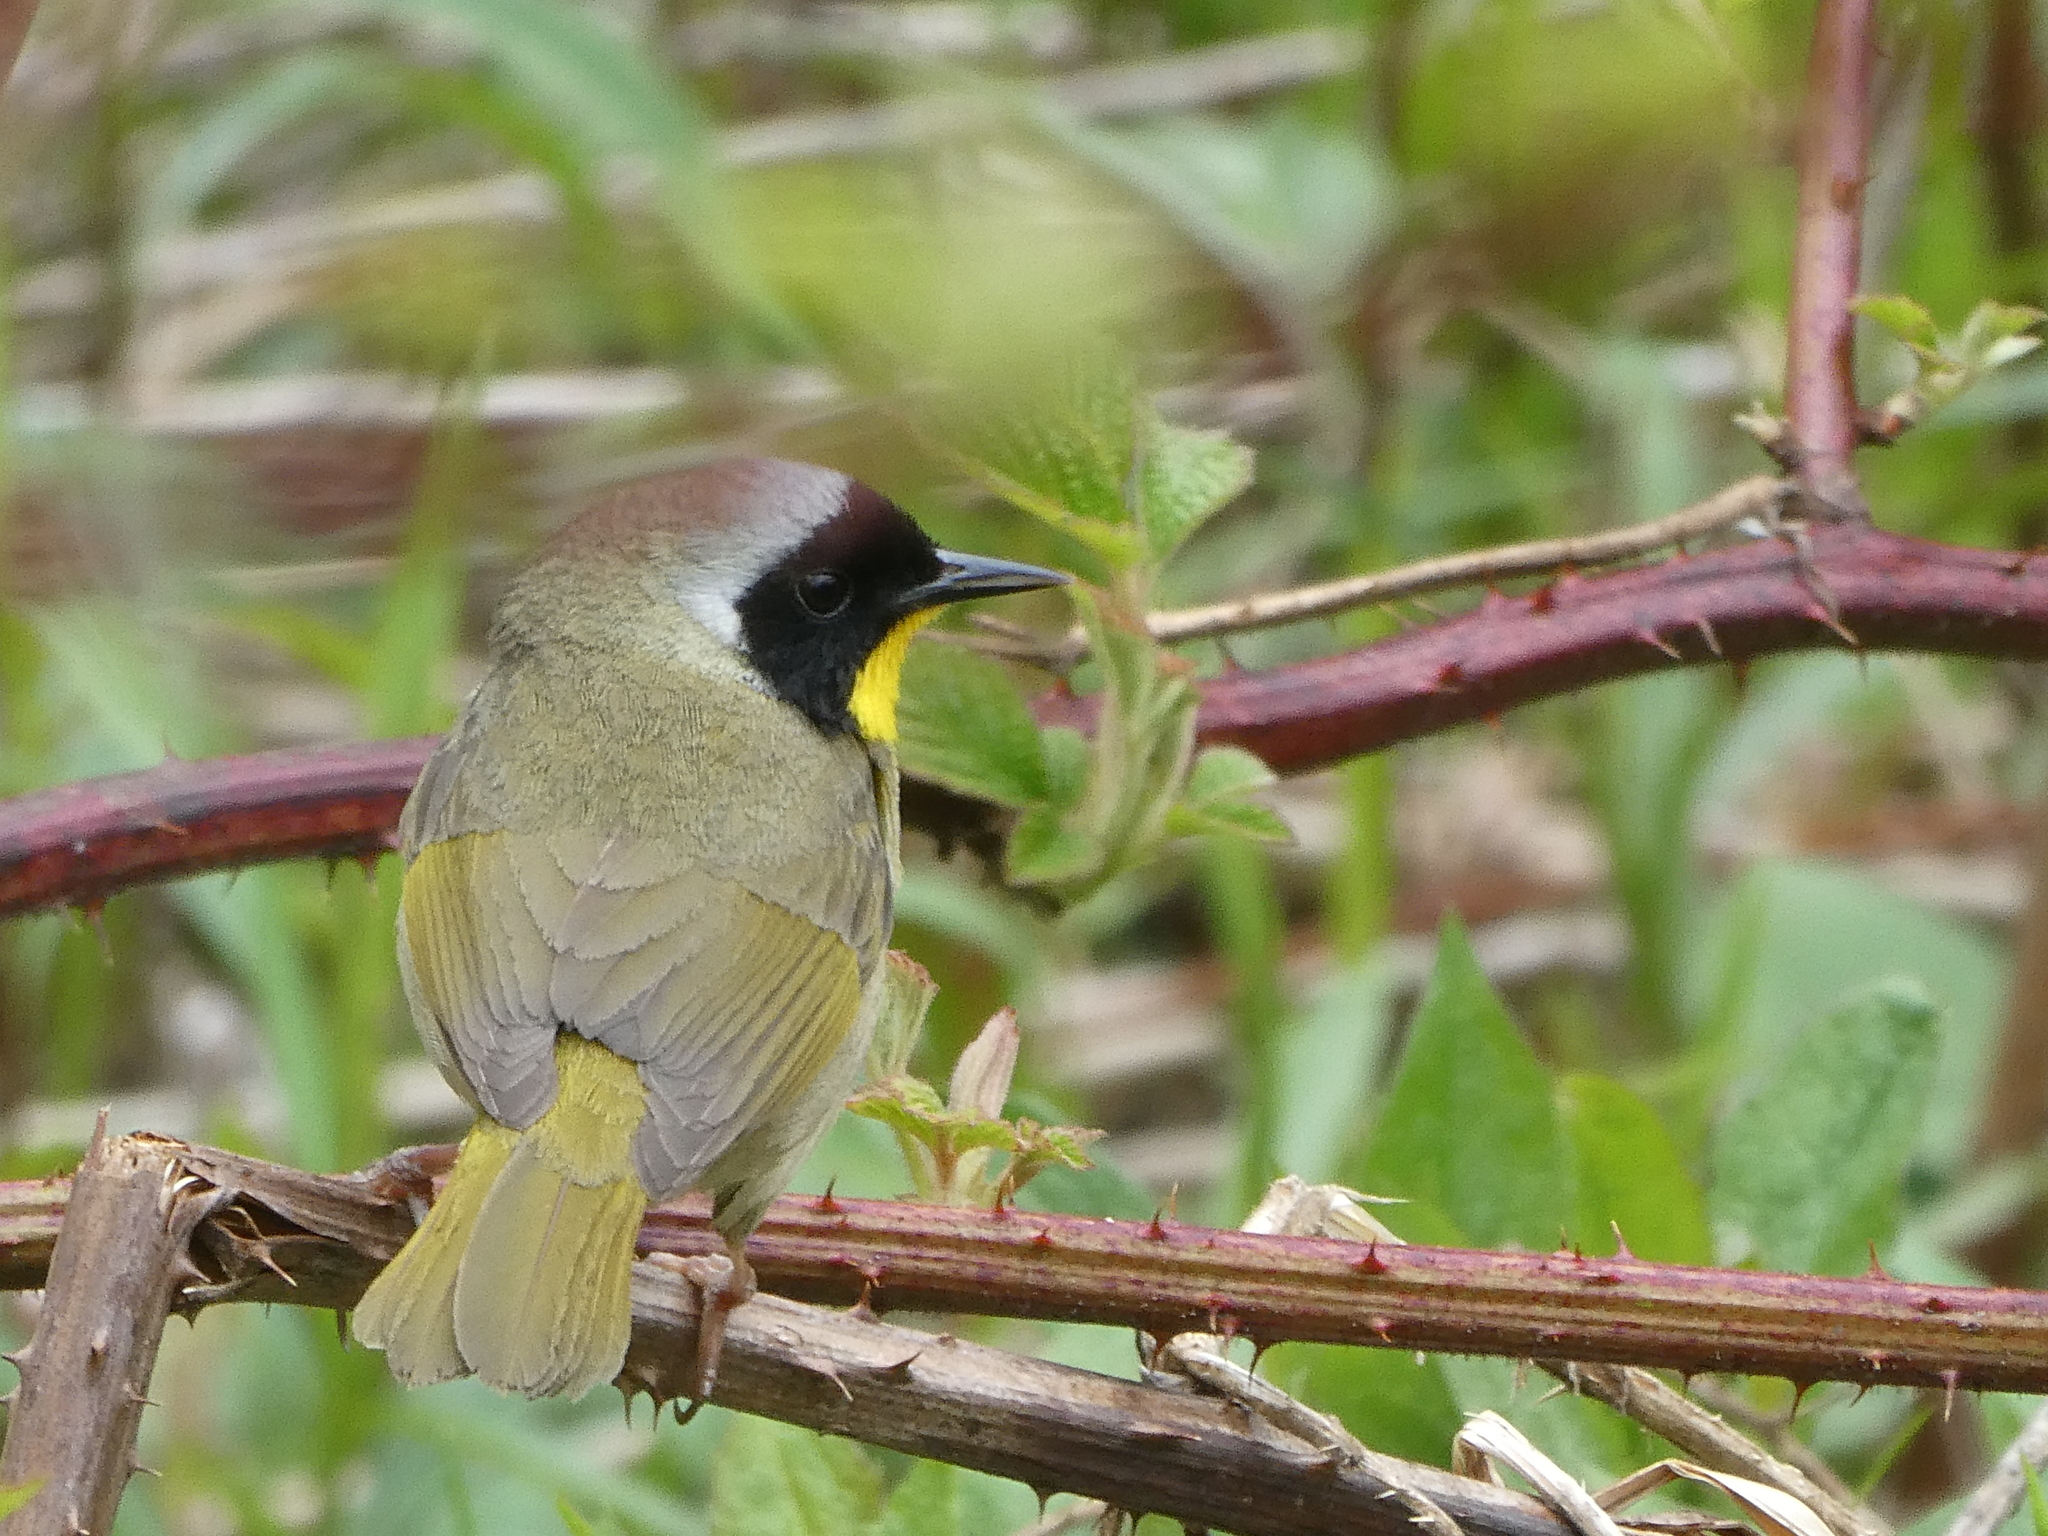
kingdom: Animalia
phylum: Chordata
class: Aves
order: Passeriformes
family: Parulidae
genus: Geothlypis
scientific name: Geothlypis trichas
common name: Common yellowthroat
